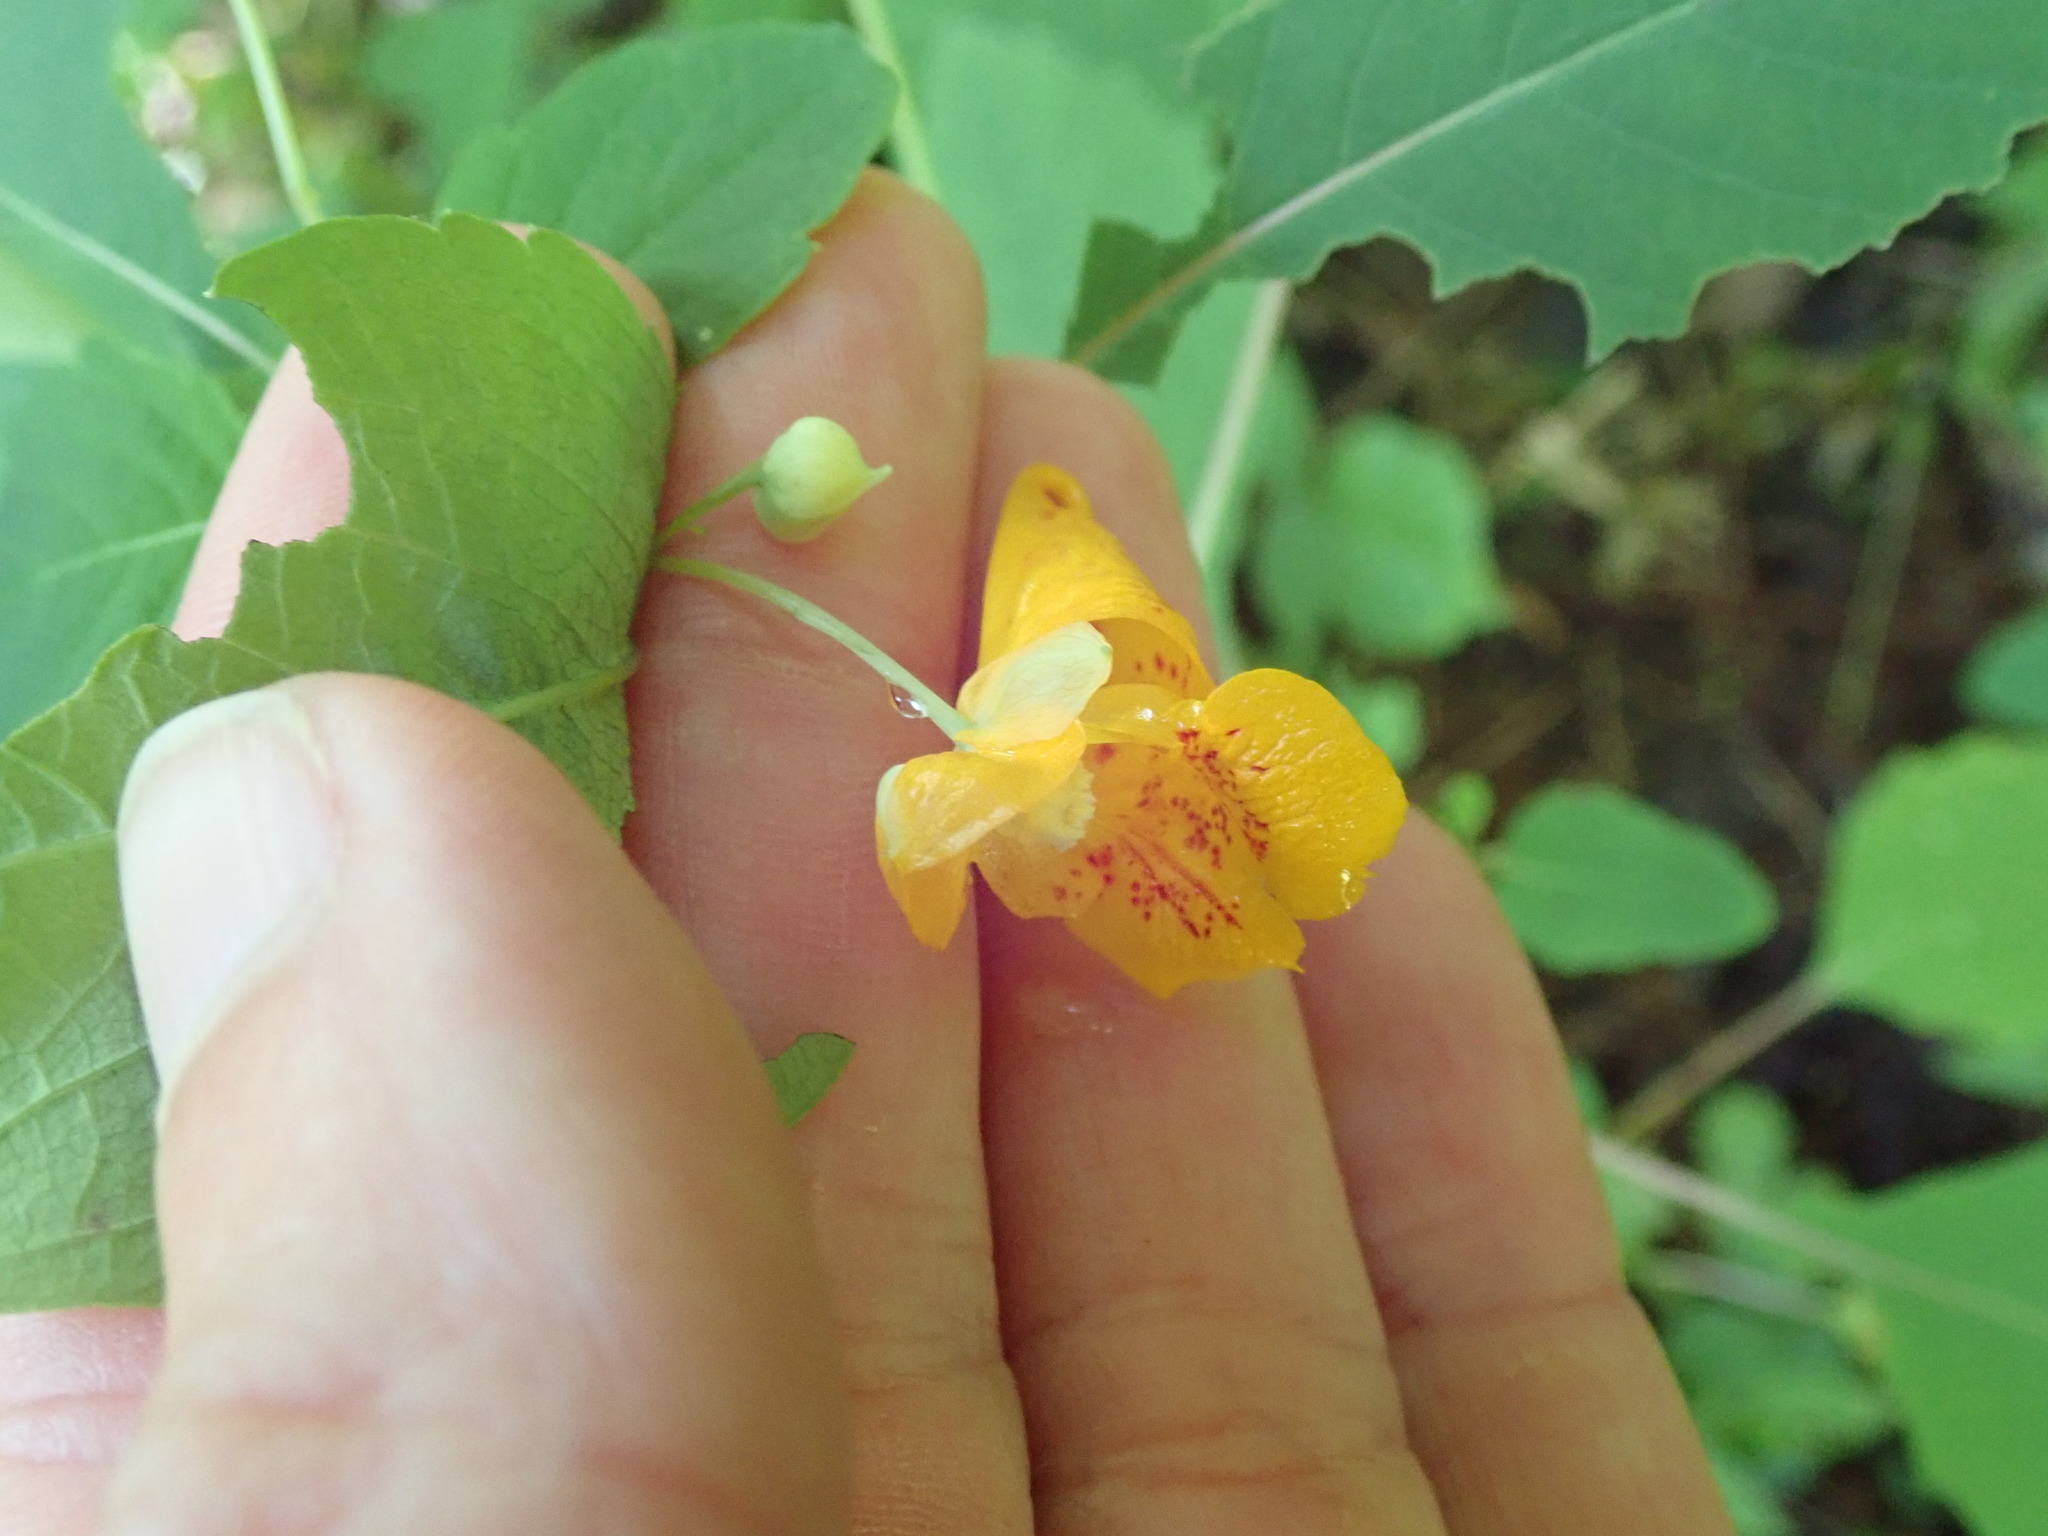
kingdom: Plantae
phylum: Tracheophyta
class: Magnoliopsida
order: Ericales
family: Balsaminaceae
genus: Impatiens
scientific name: Impatiens capensis
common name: Orange balsam
